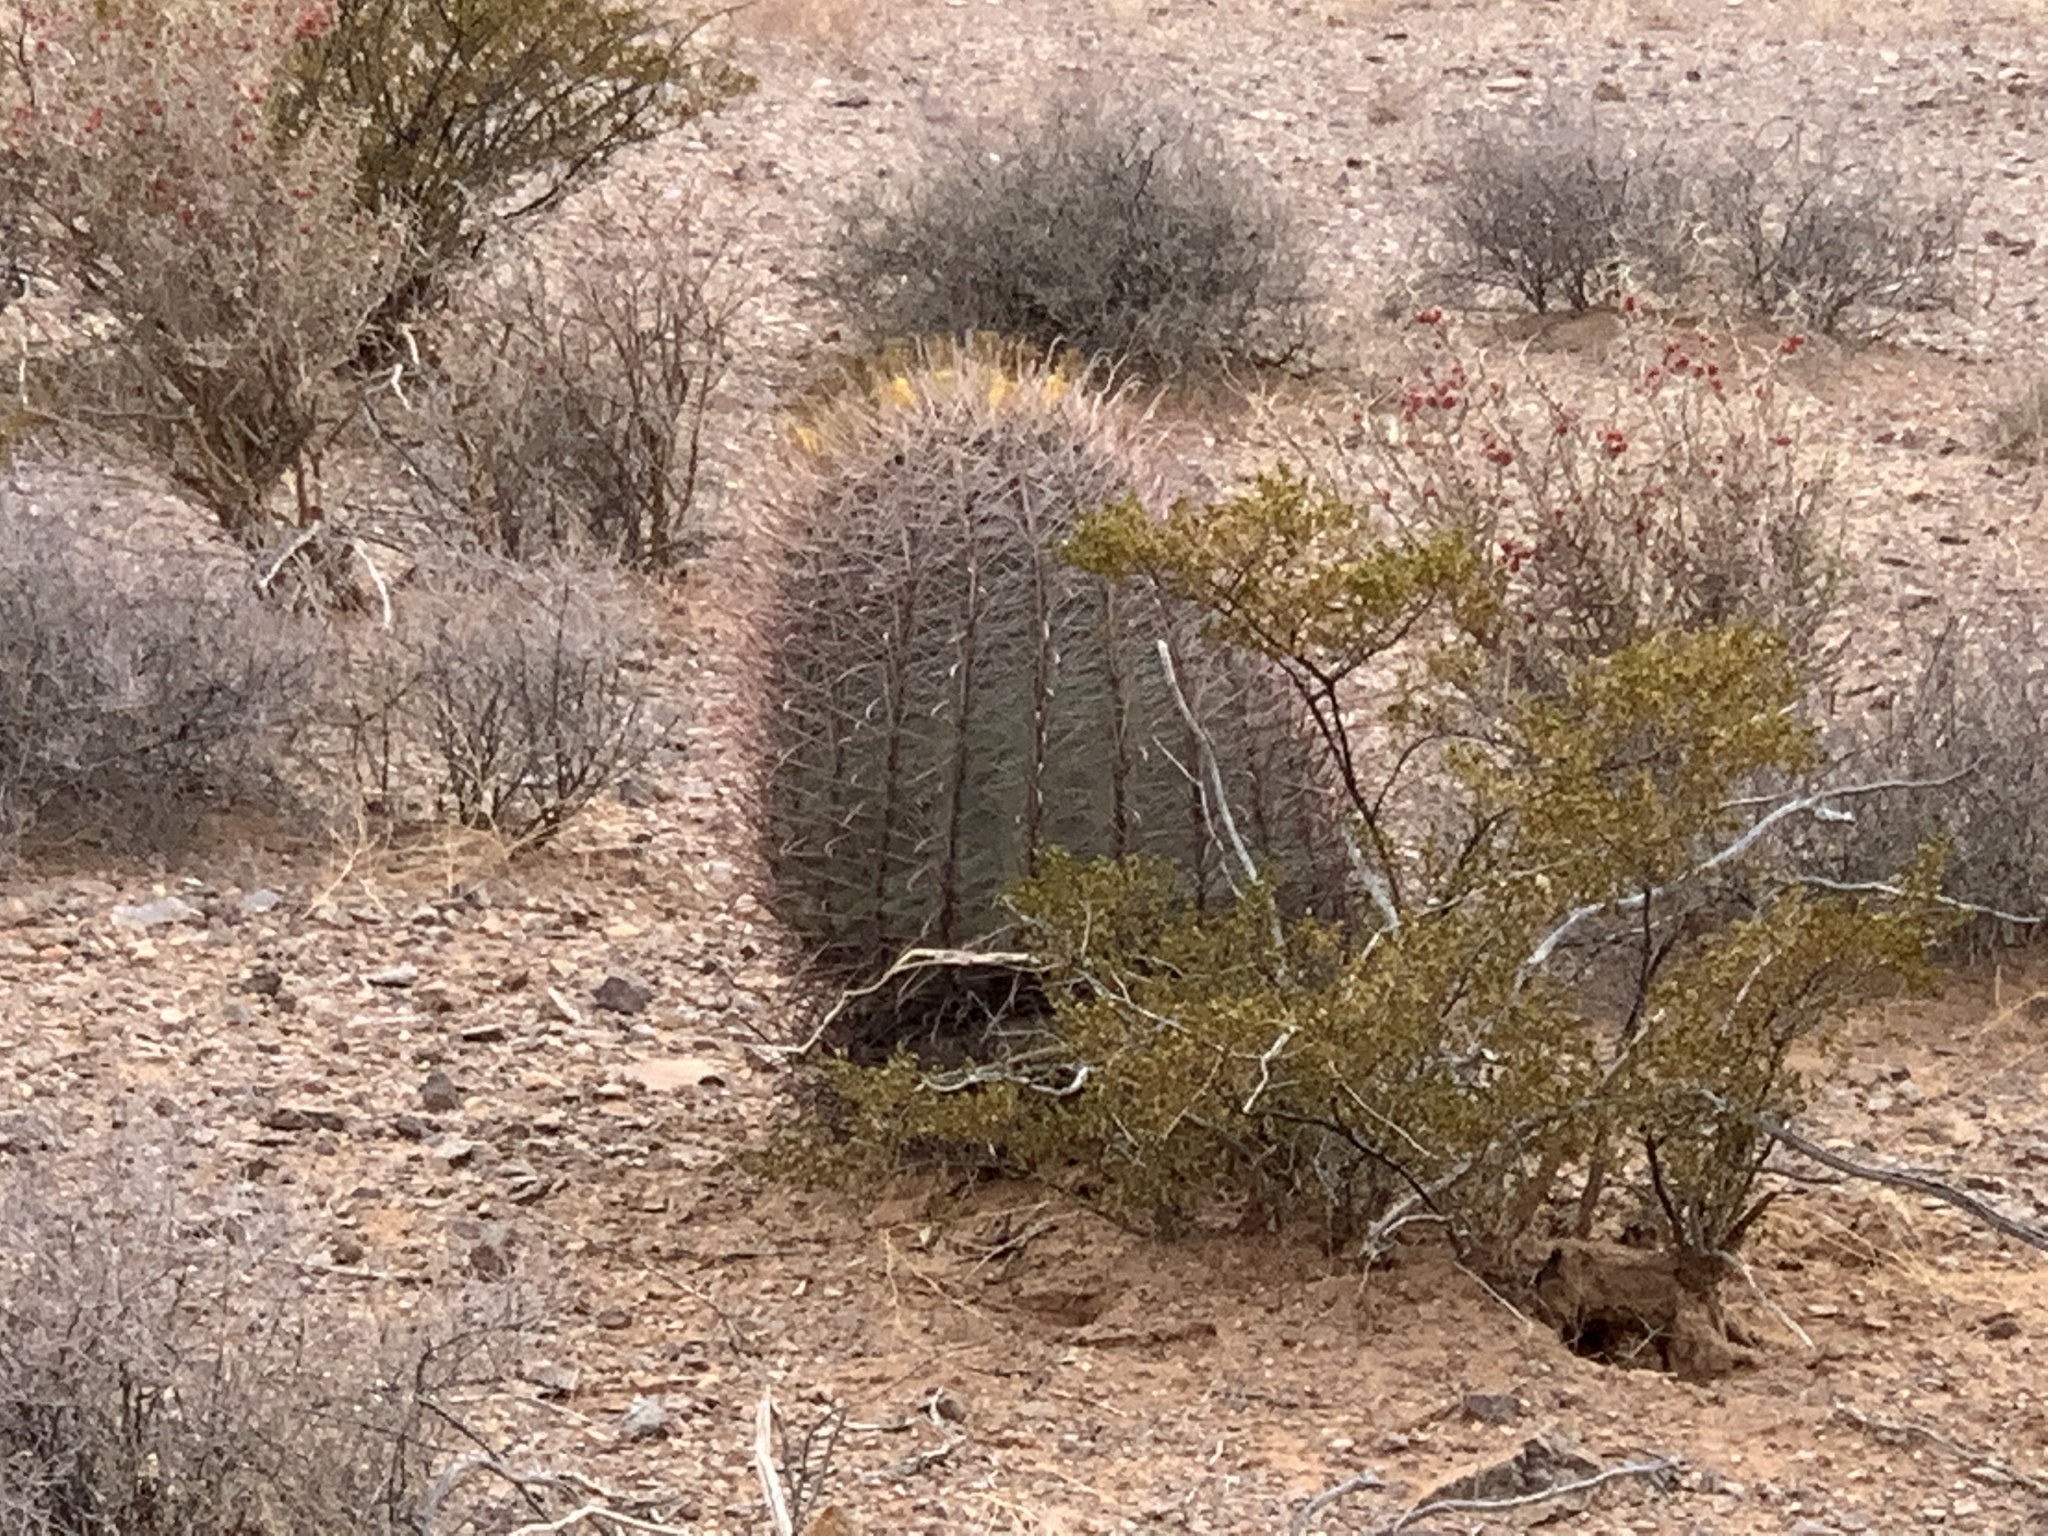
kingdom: Plantae
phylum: Tracheophyta
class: Magnoliopsida
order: Caryophyllales
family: Cactaceae
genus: Ferocactus
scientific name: Ferocactus wislizeni
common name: Candy barrel cactus
